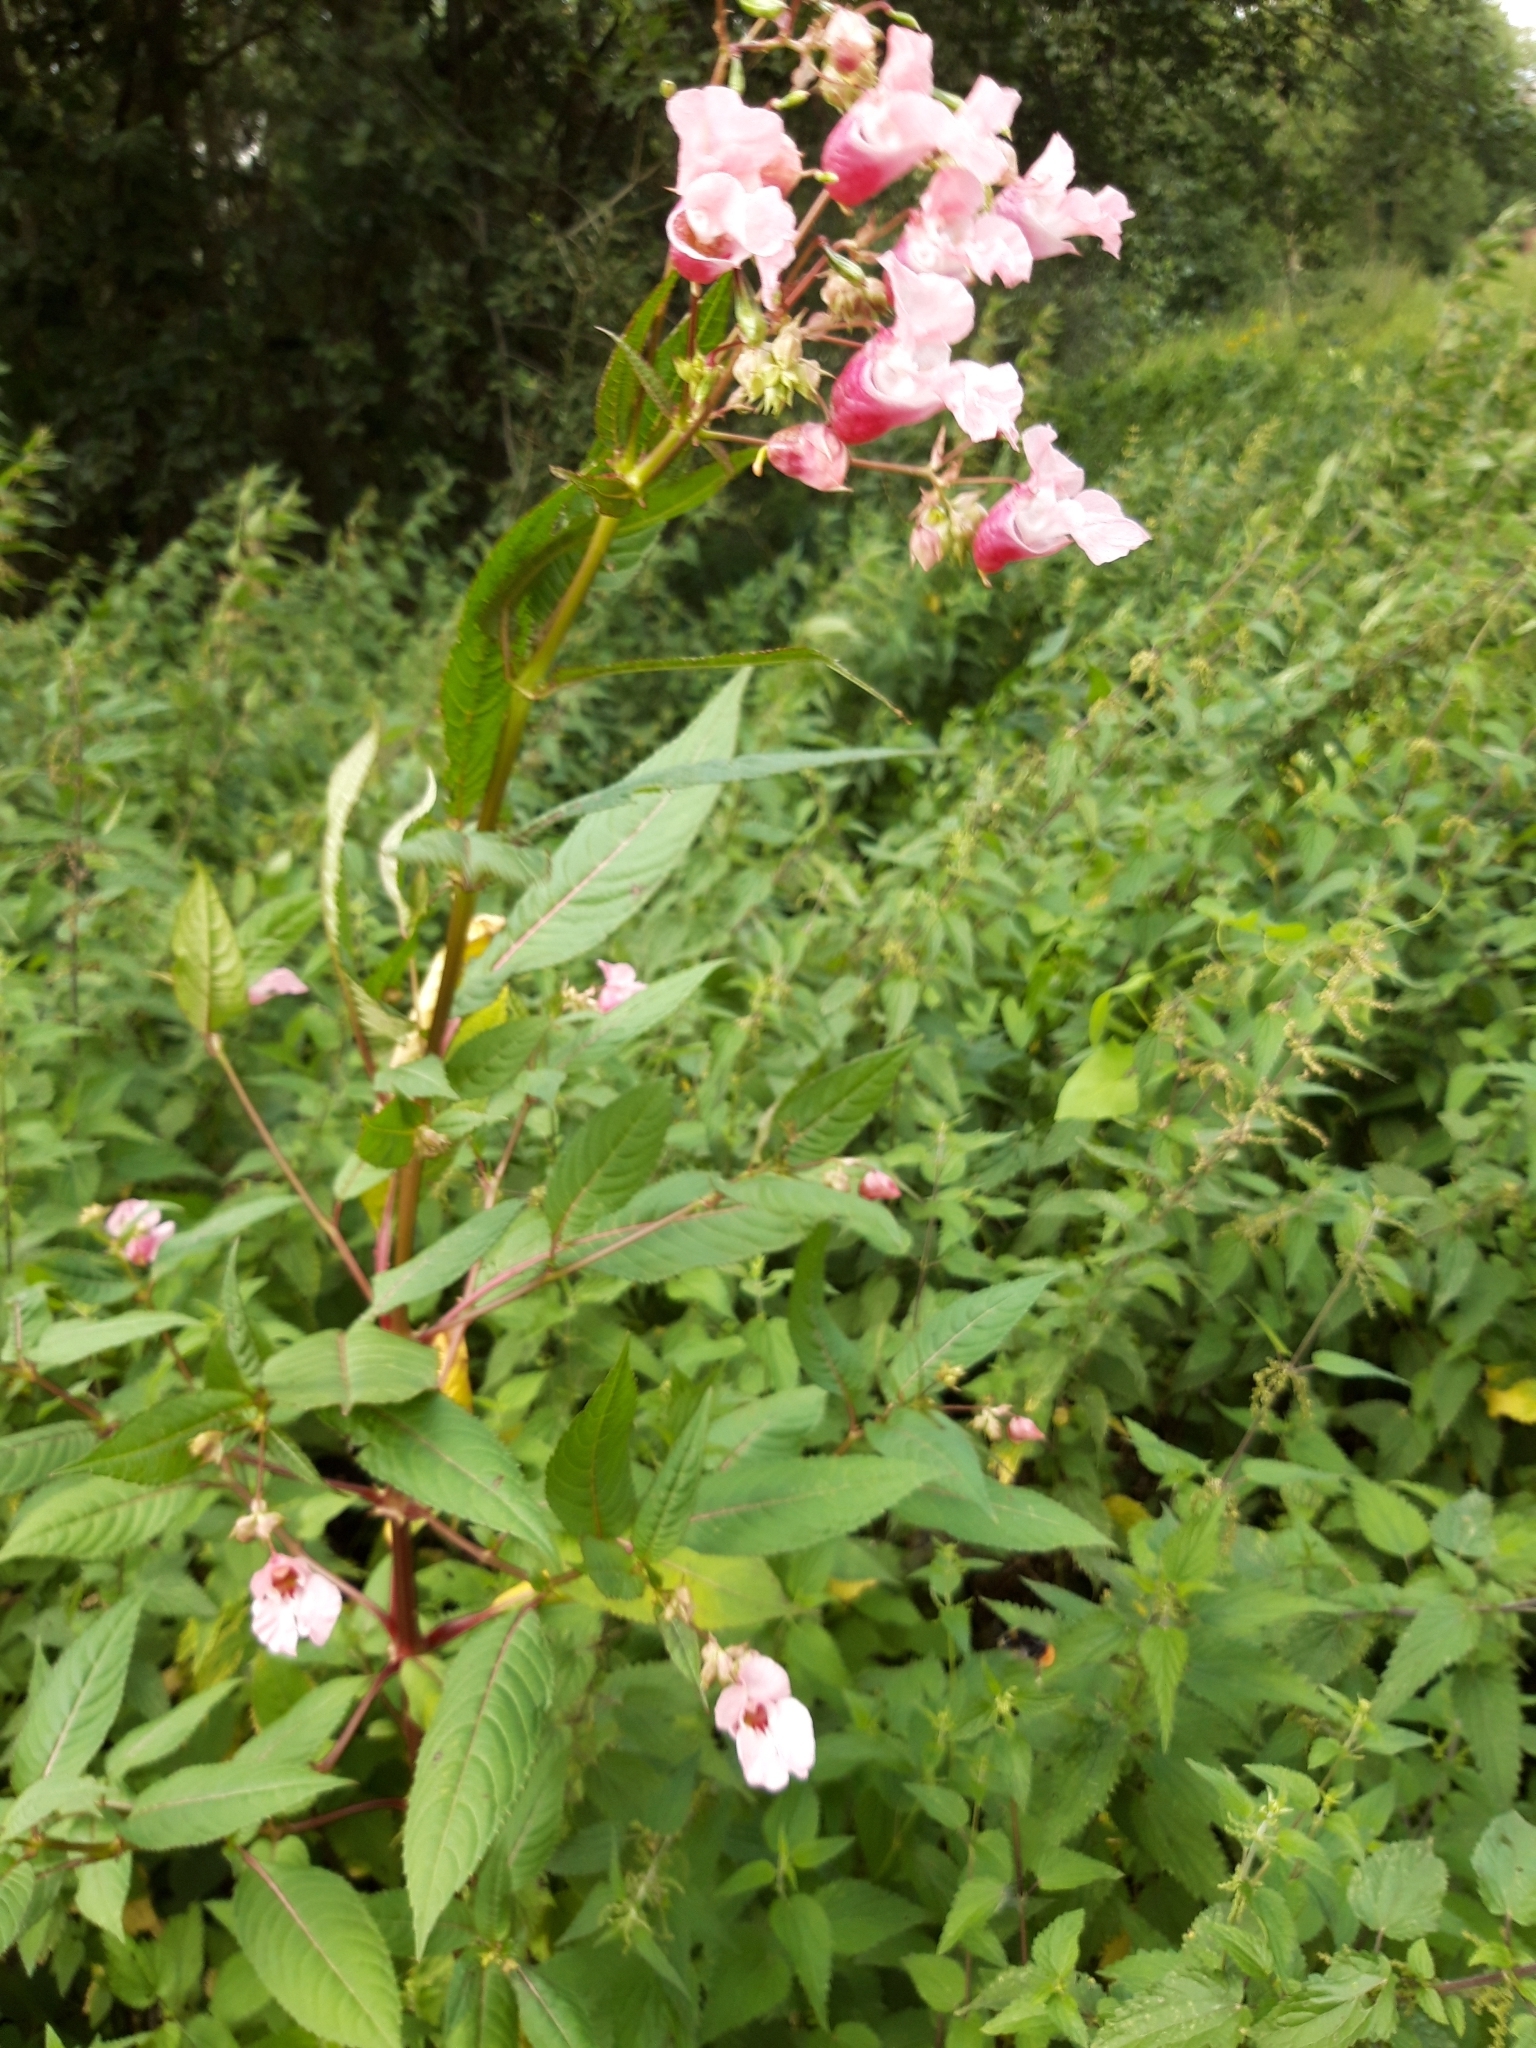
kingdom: Plantae
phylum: Tracheophyta
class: Magnoliopsida
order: Ericales
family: Balsaminaceae
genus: Impatiens
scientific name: Impatiens glandulifera
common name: Himalayan balsam
